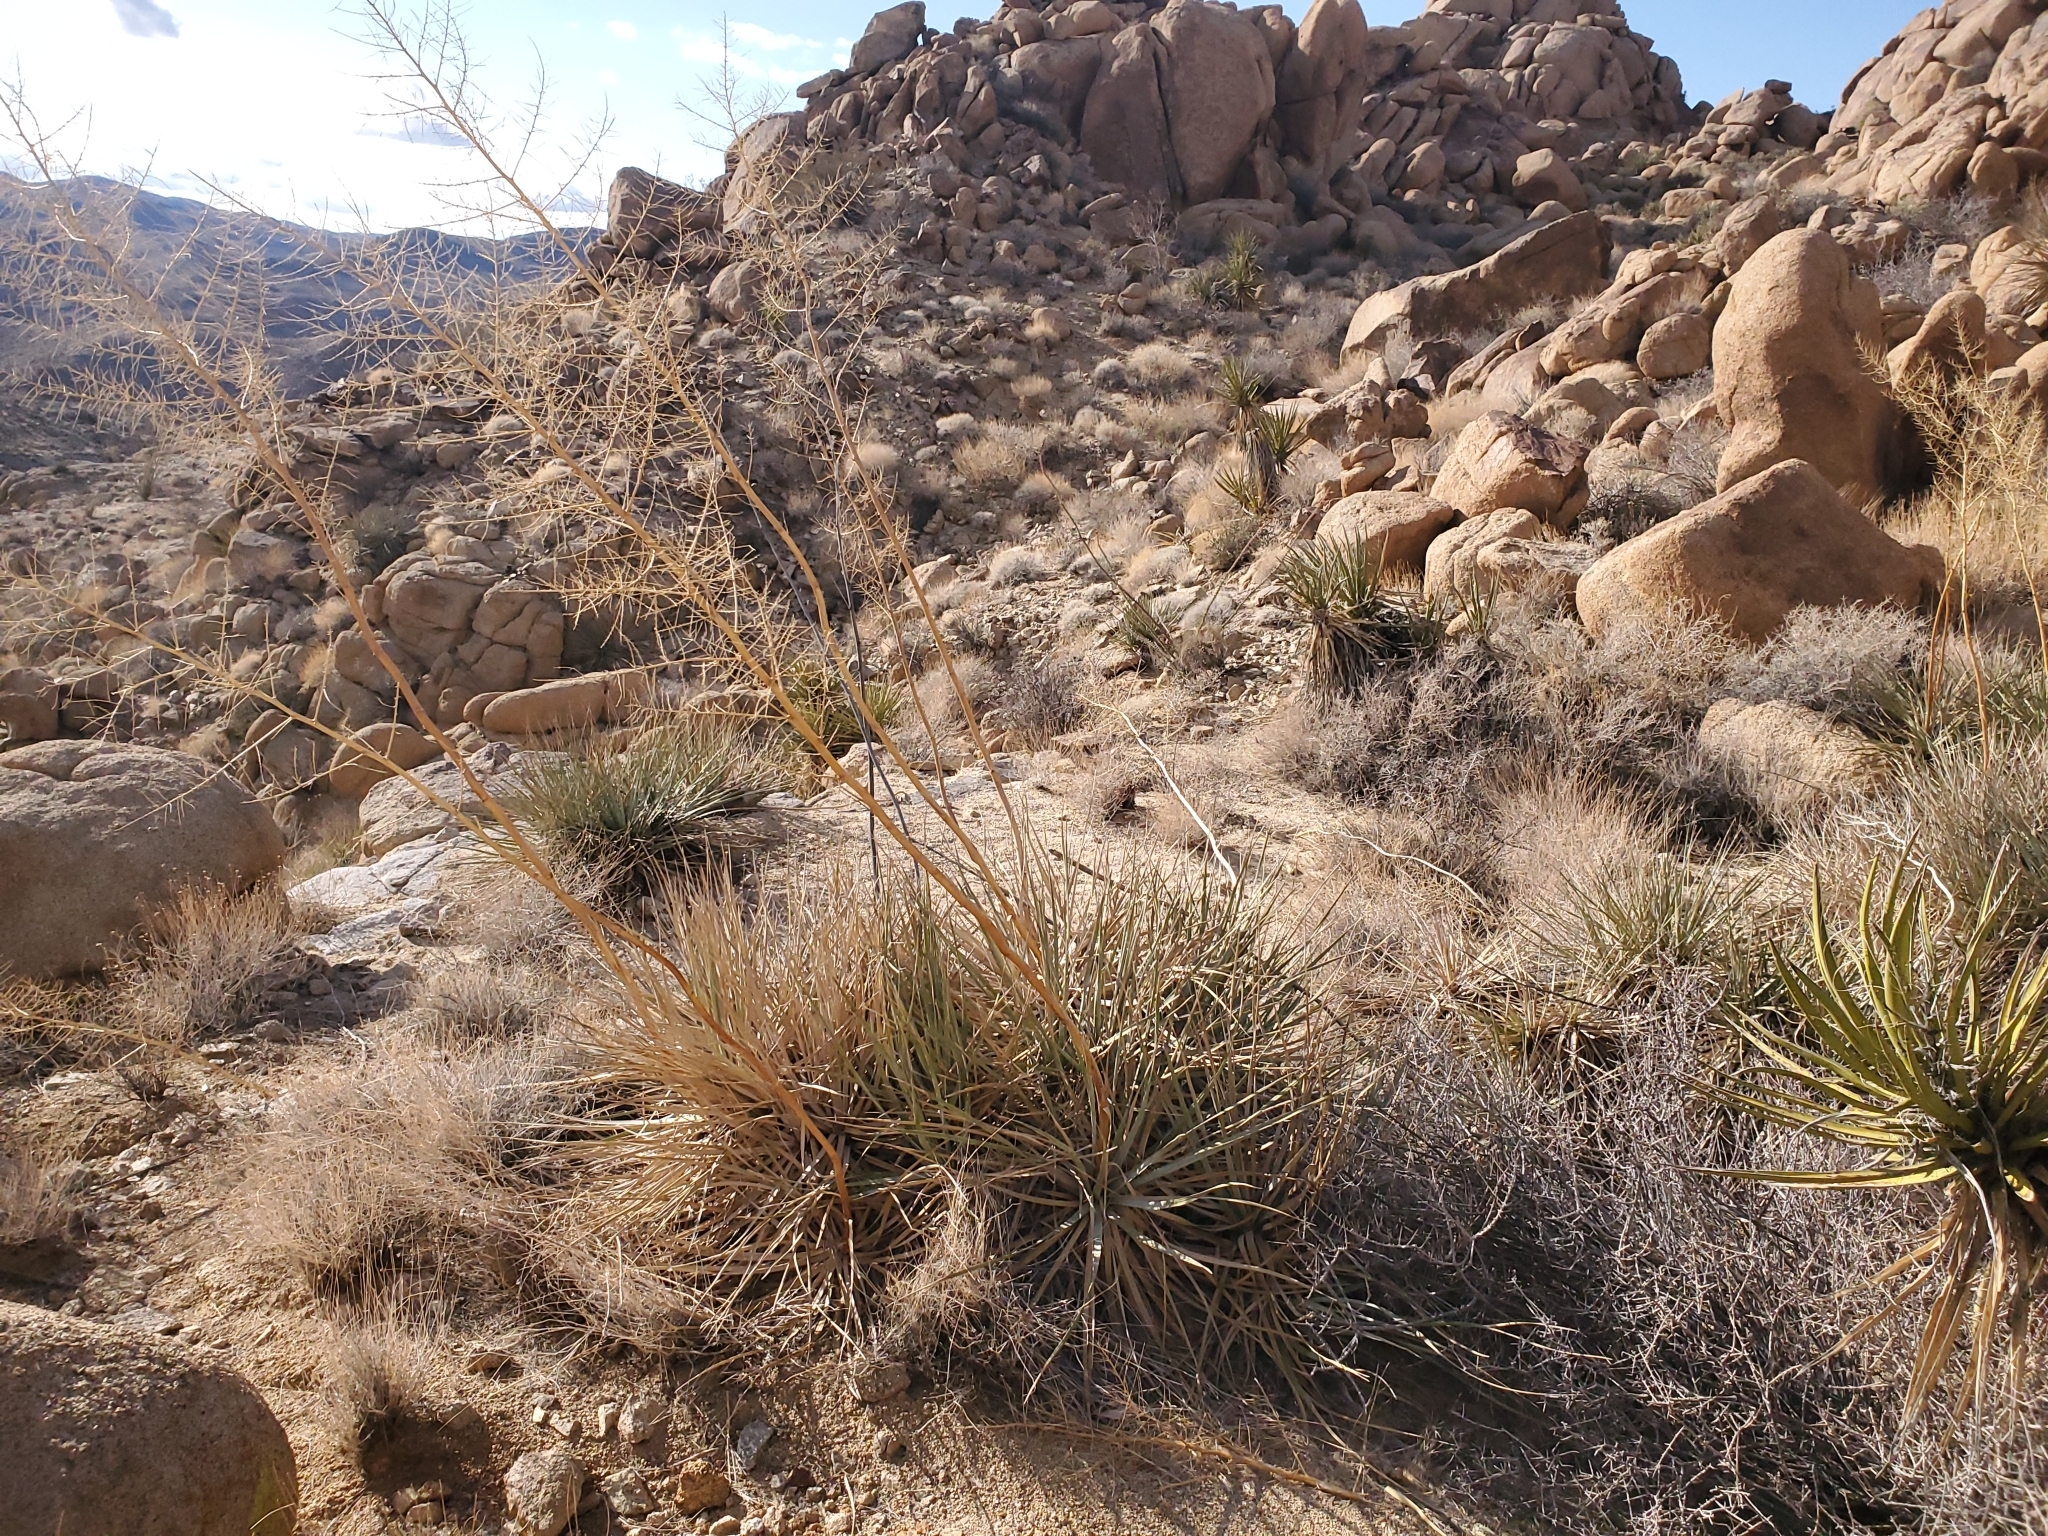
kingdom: Plantae
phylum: Tracheophyta
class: Liliopsida
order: Asparagales
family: Asparagaceae
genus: Nolina
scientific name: Nolina bigelovii
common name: Bigelow bear-grass
